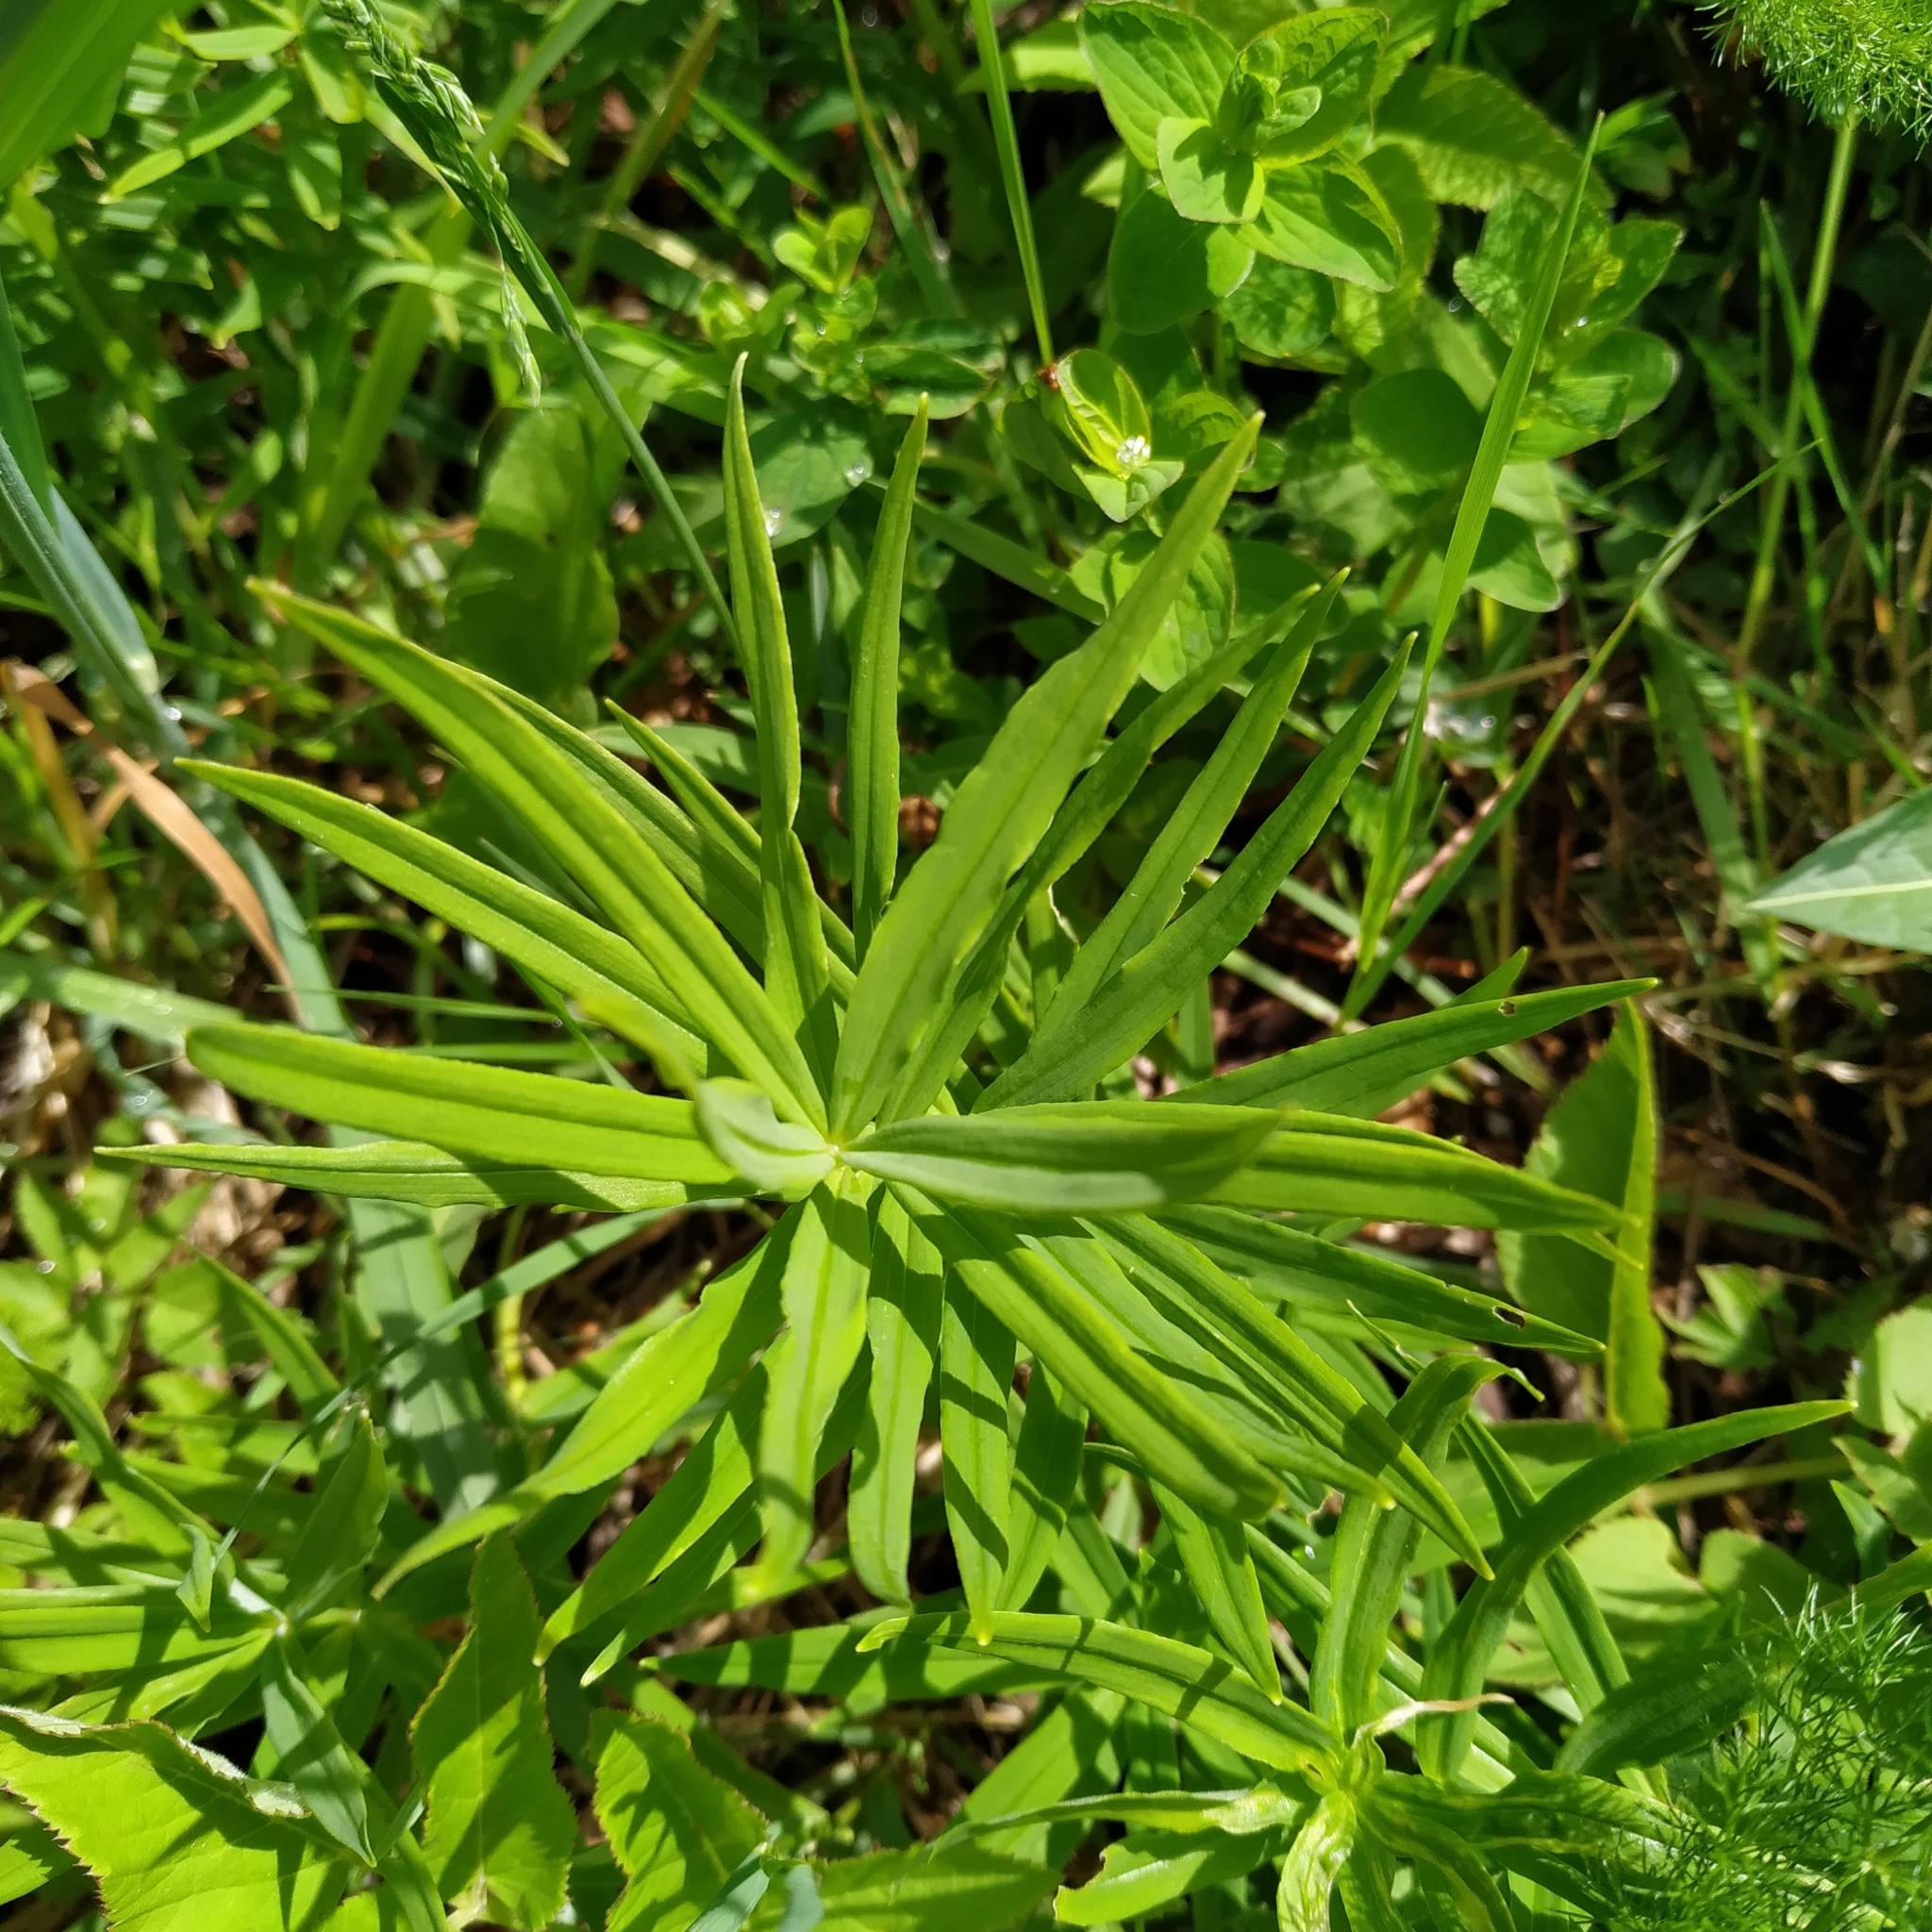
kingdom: Plantae
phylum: Tracheophyta
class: Liliopsida
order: Asparagales
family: Asparagaceae
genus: Polygonatum
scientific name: Polygonatum verticillatum
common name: Whorled solomon's-seal
